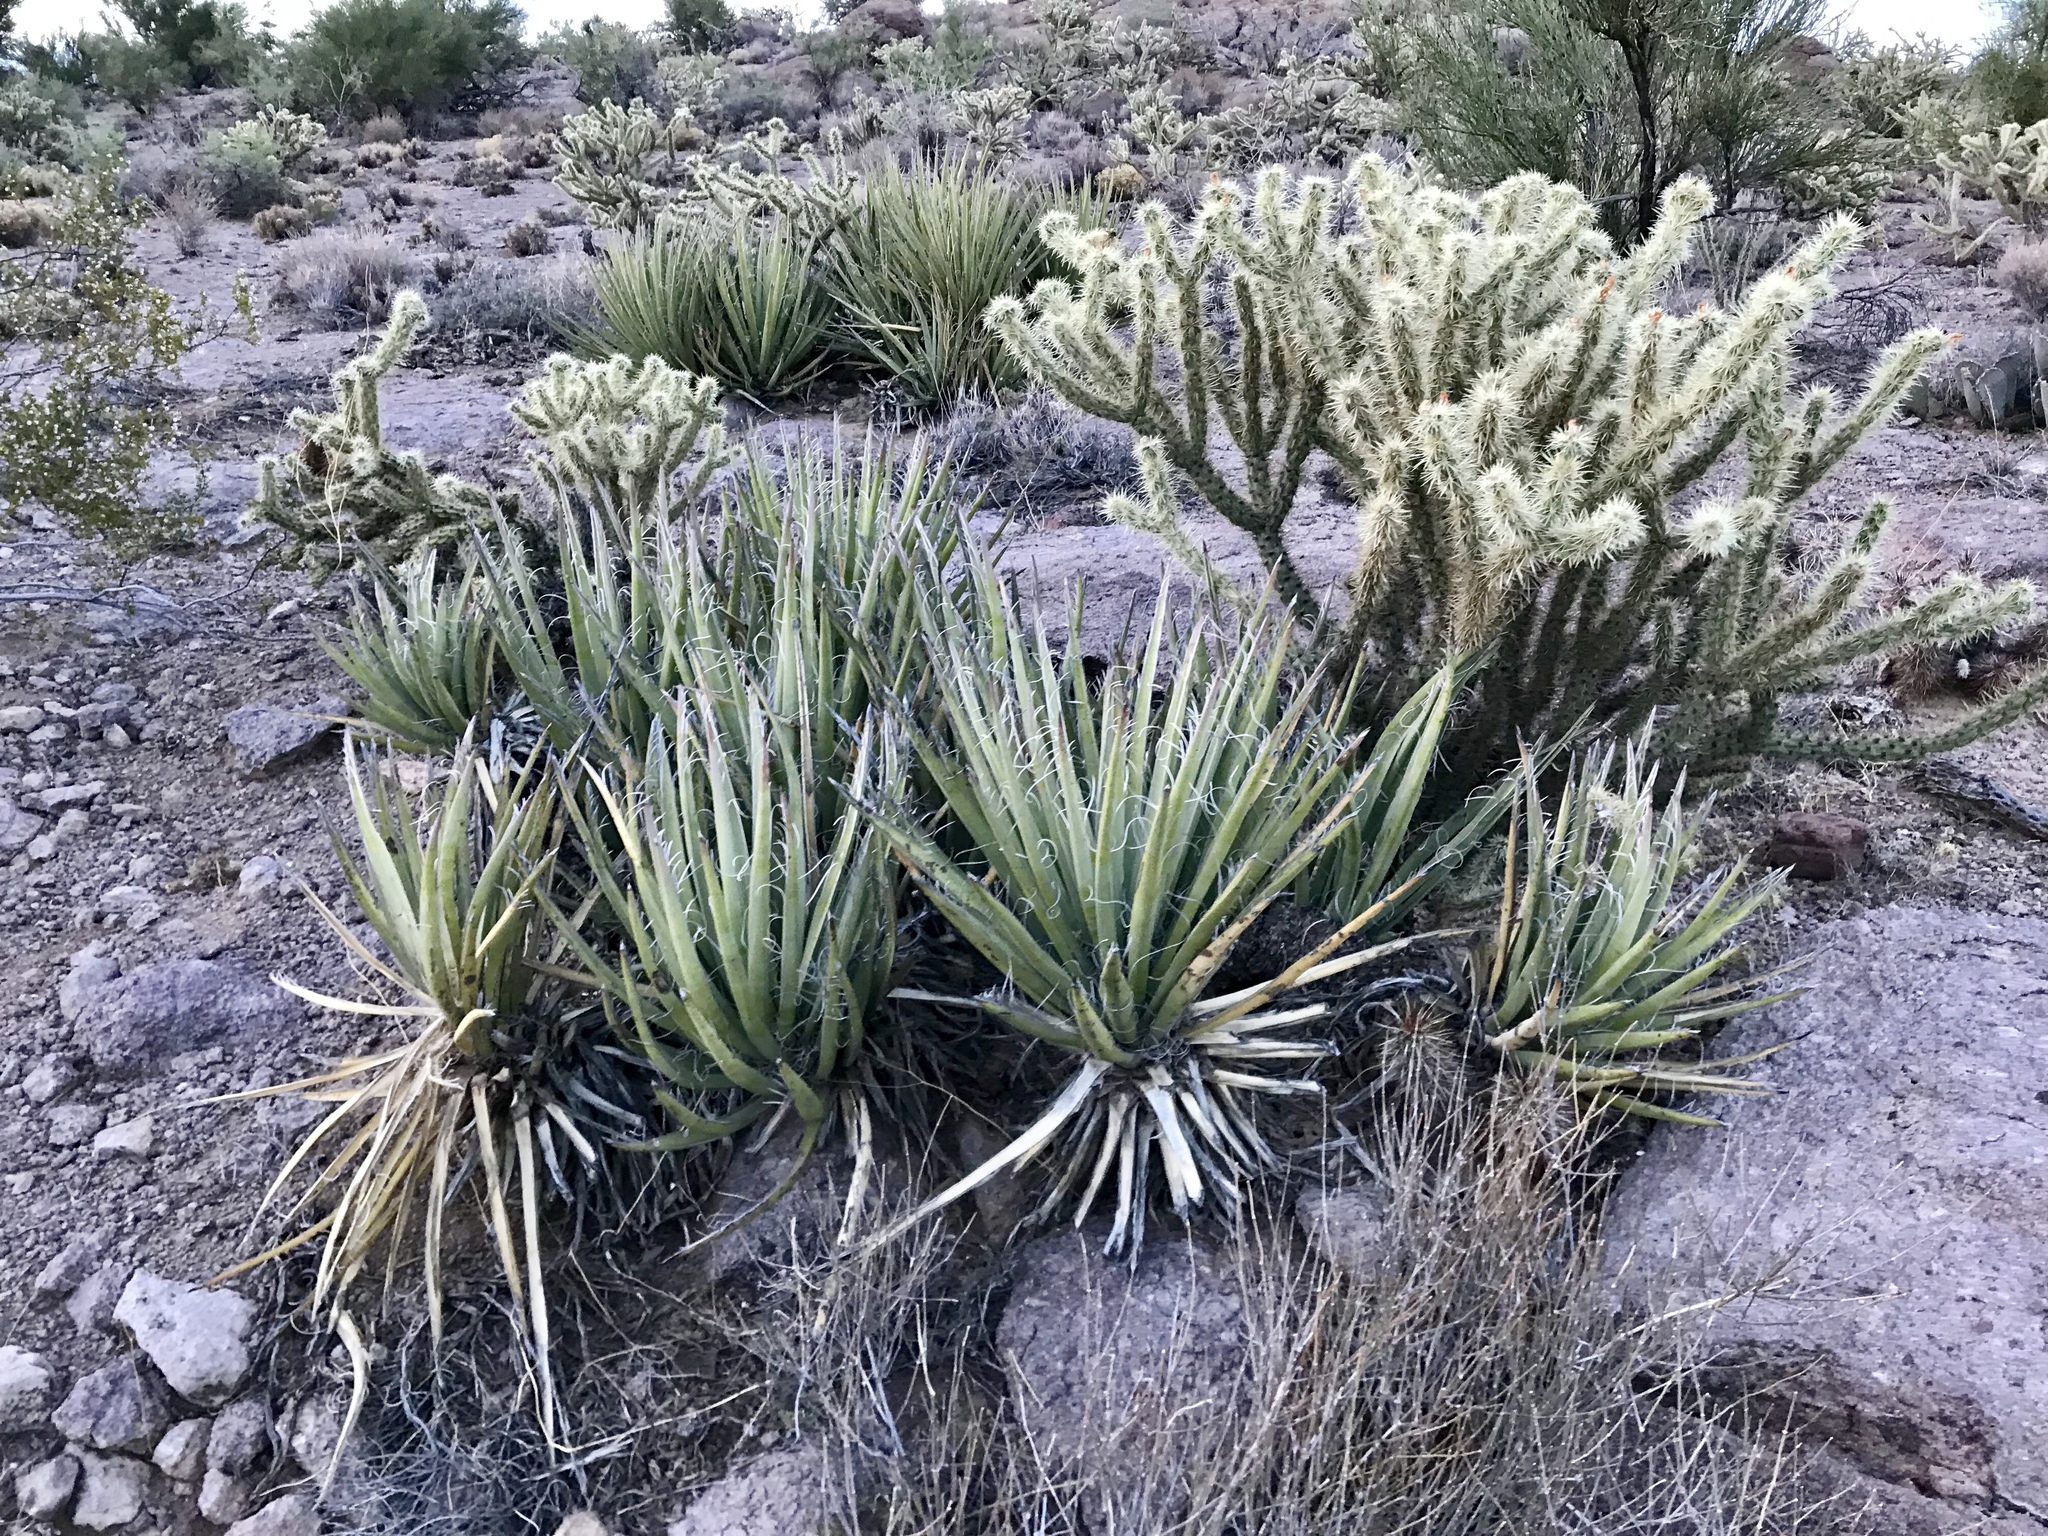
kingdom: Plantae
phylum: Tracheophyta
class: Liliopsida
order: Asparagales
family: Asparagaceae
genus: Yucca
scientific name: Yucca baccata
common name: Banana yucca
